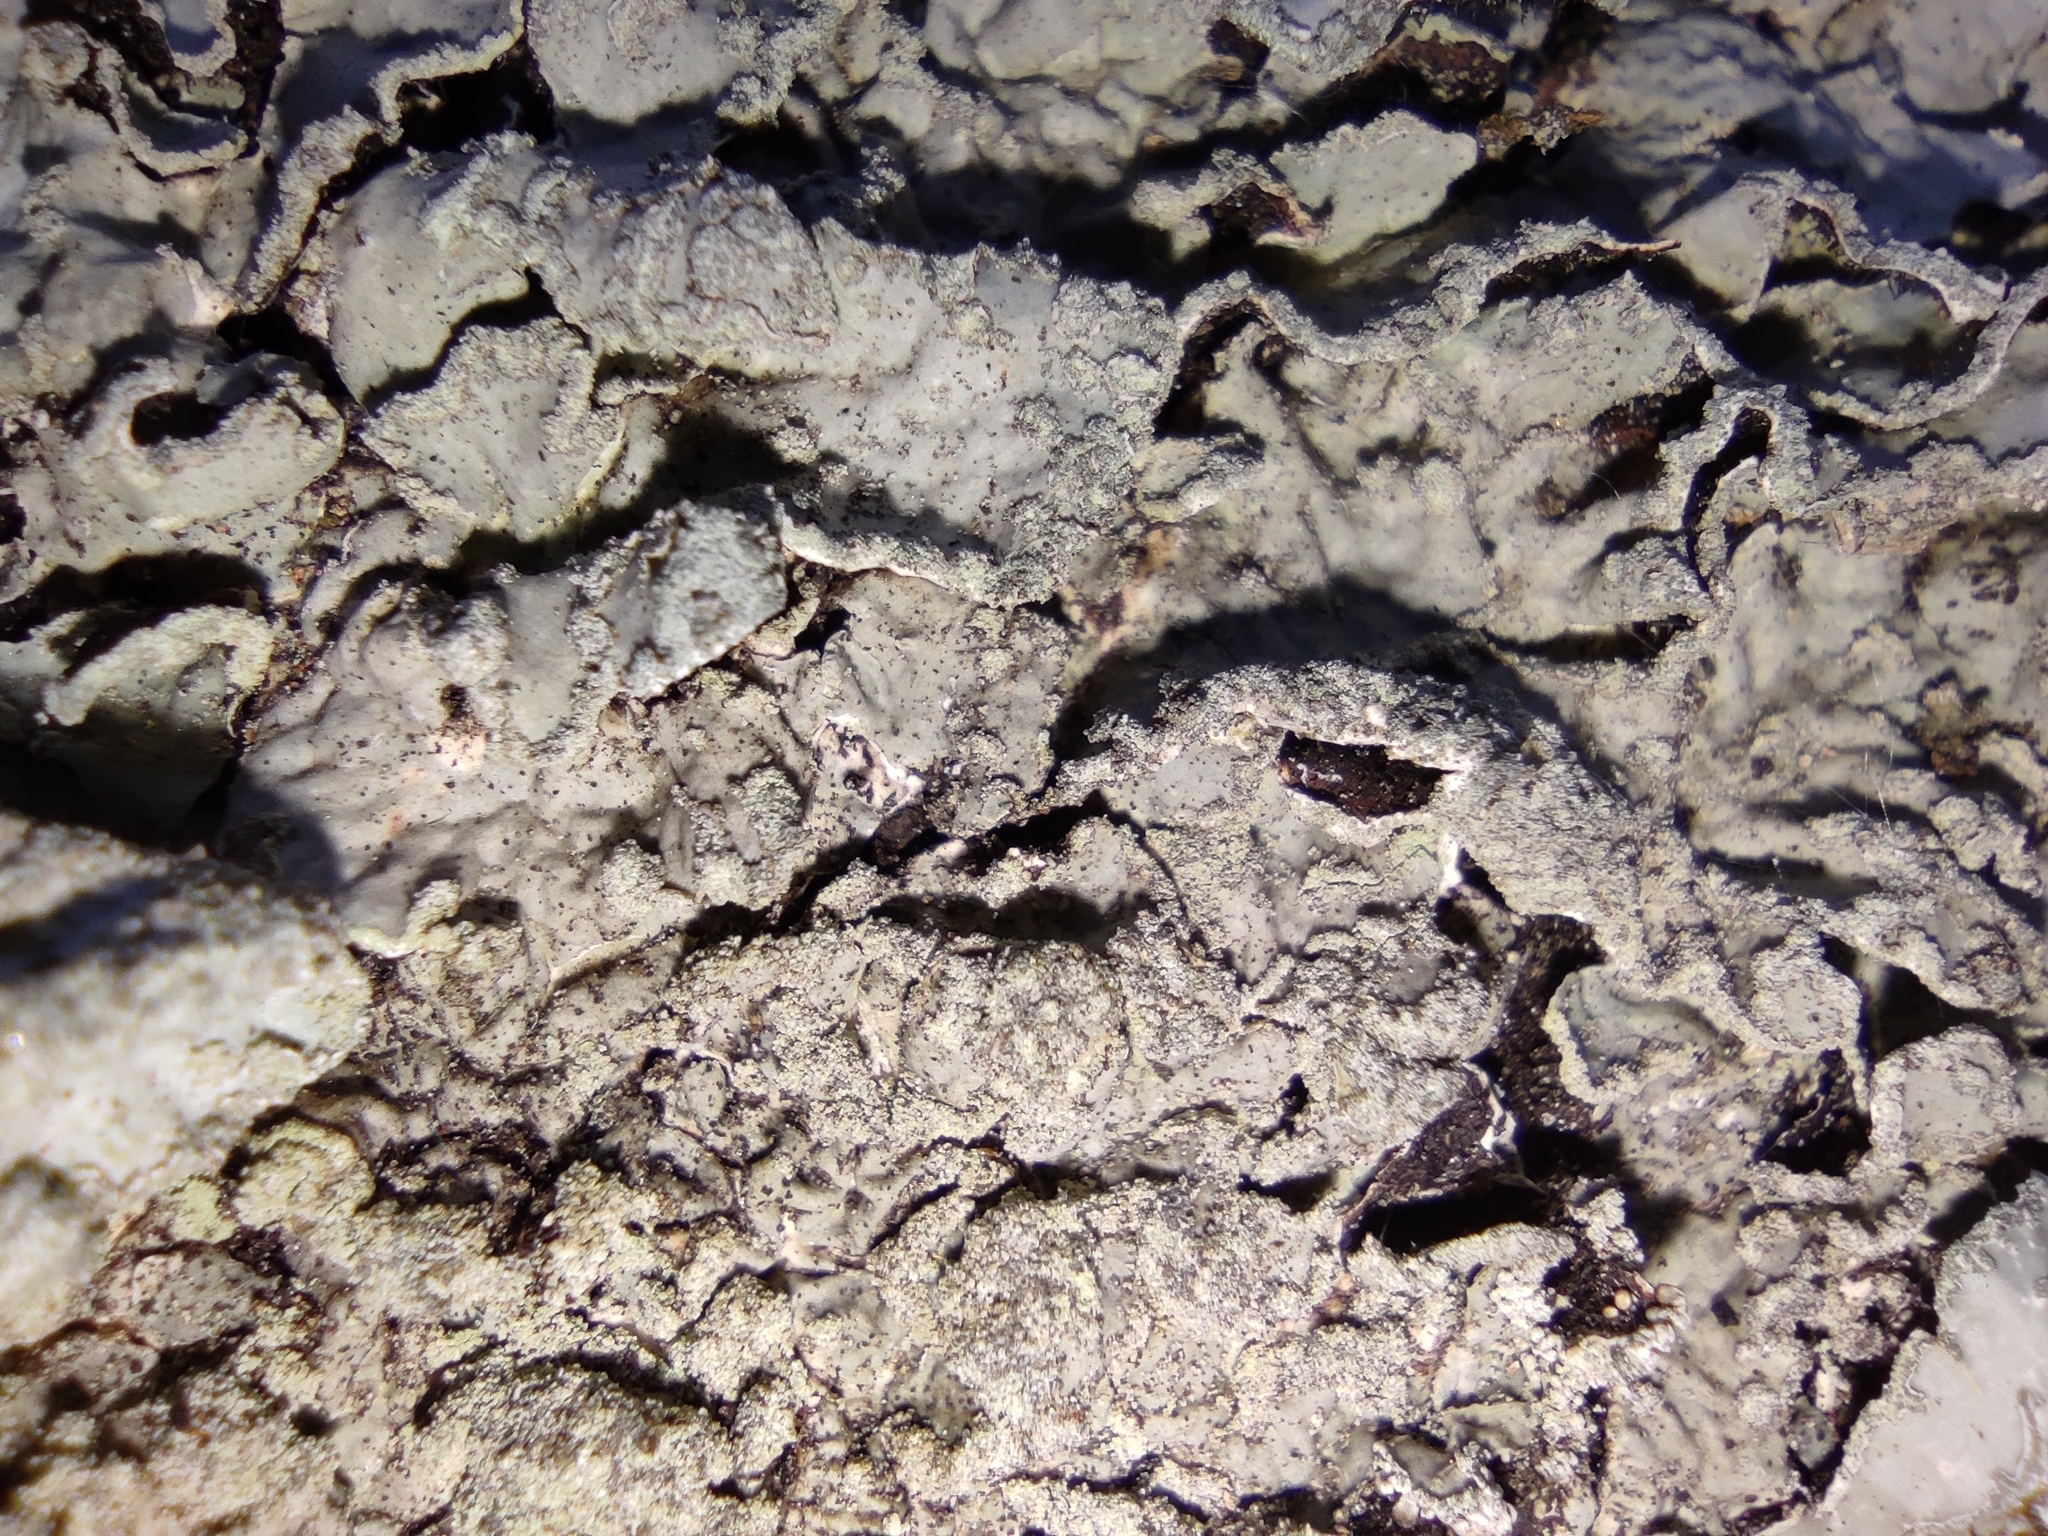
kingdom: Fungi
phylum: Ascomycota
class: Lecanoromycetes
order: Lecanorales
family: Parmeliaceae
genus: Parmelia
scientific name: Parmelia sulcata
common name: Netted shield lichen
